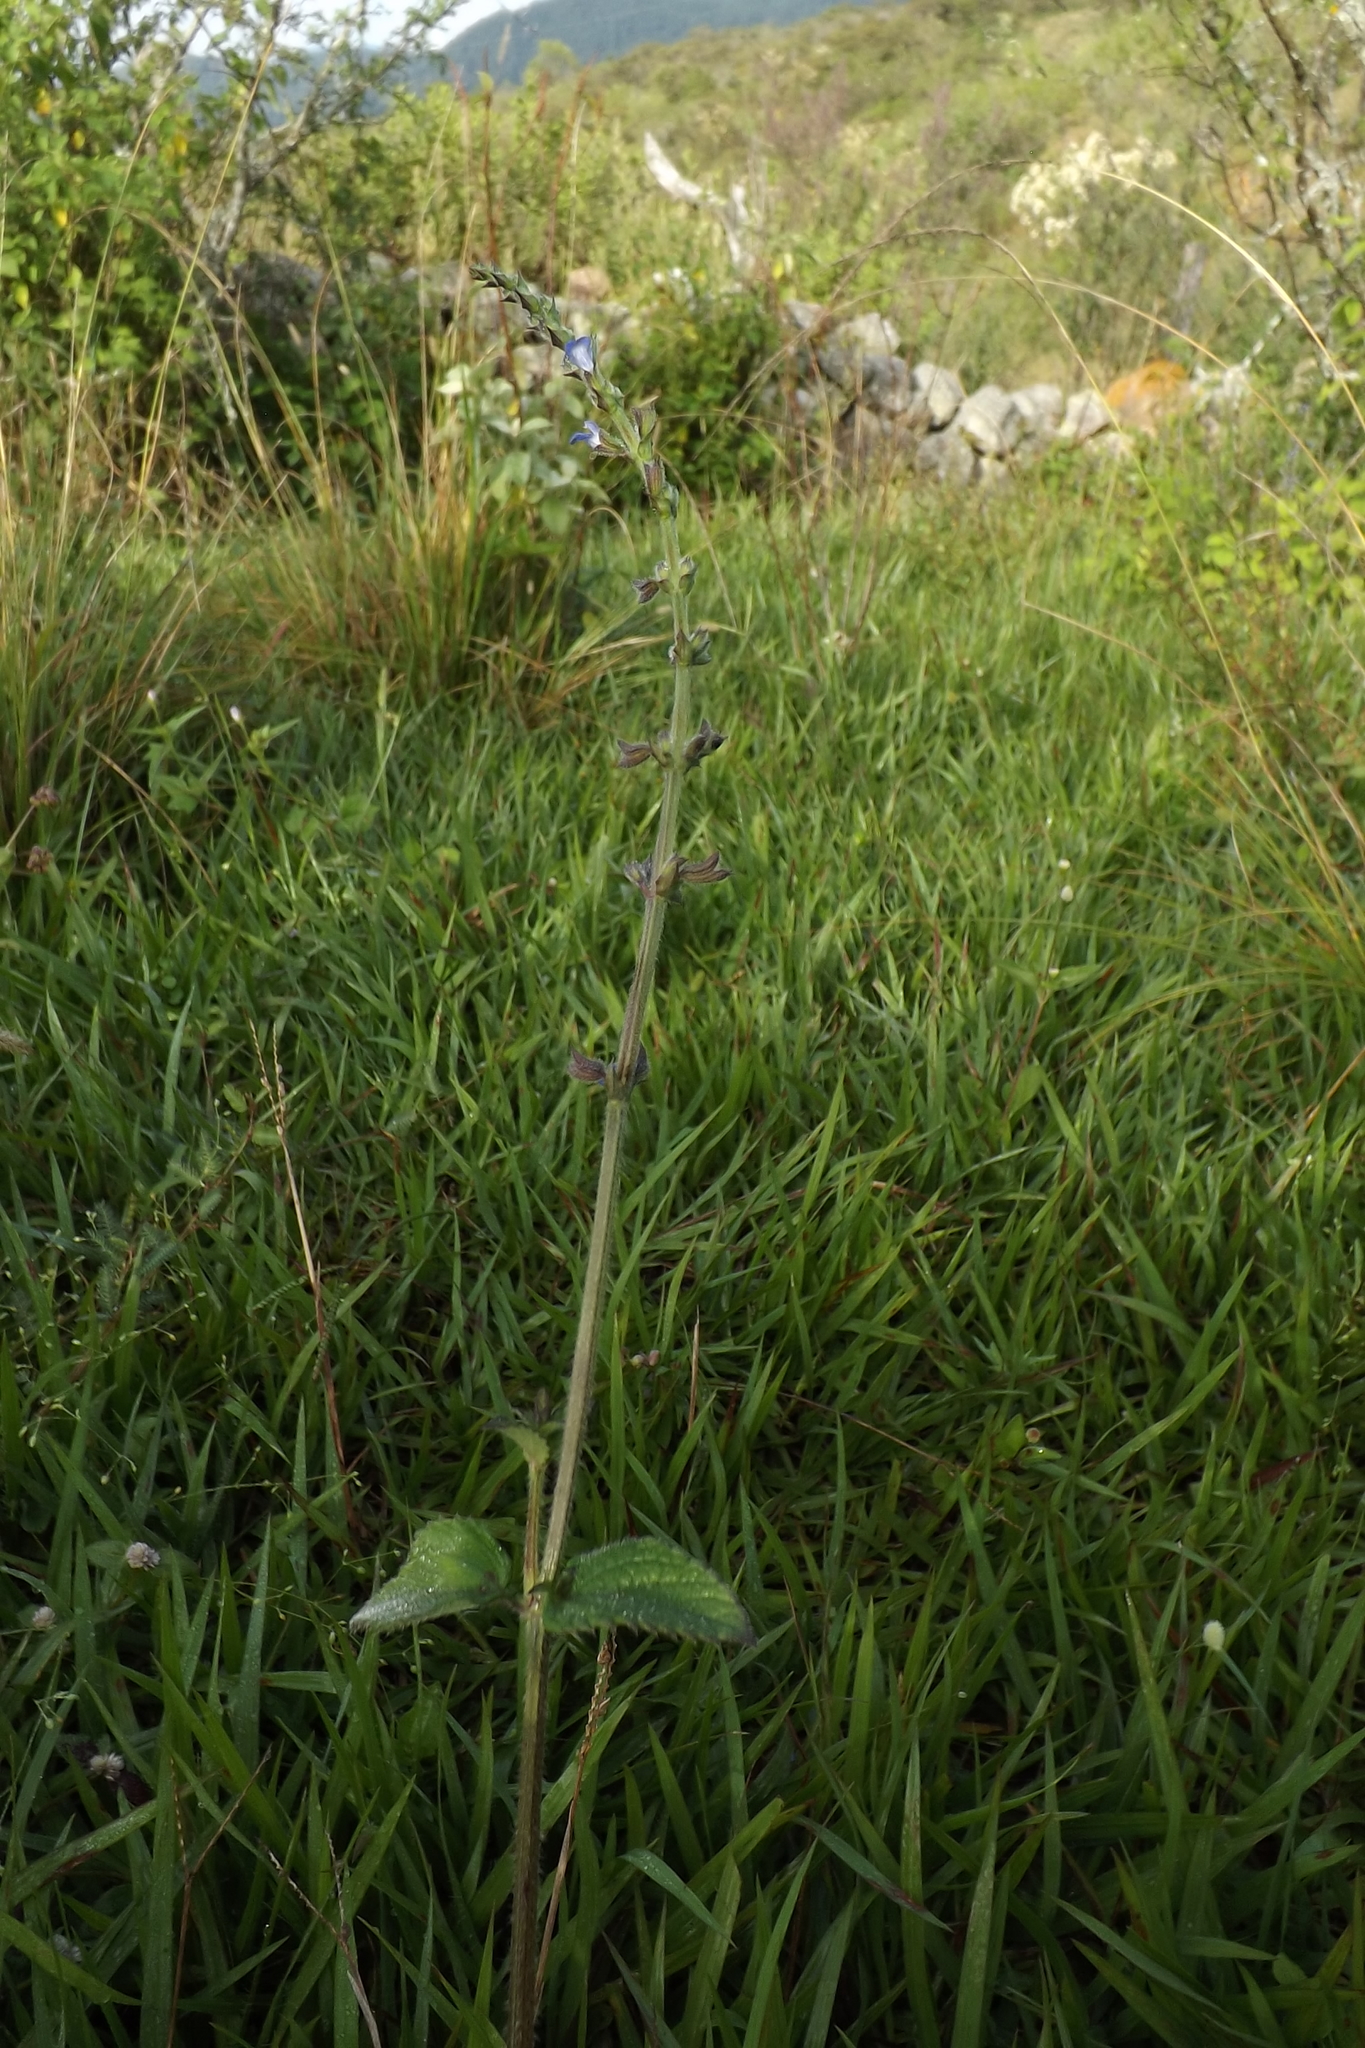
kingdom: Plantae
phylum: Tracheophyta
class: Magnoliopsida
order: Lamiales
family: Lamiaceae
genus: Salvia
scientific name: Salvia misella
